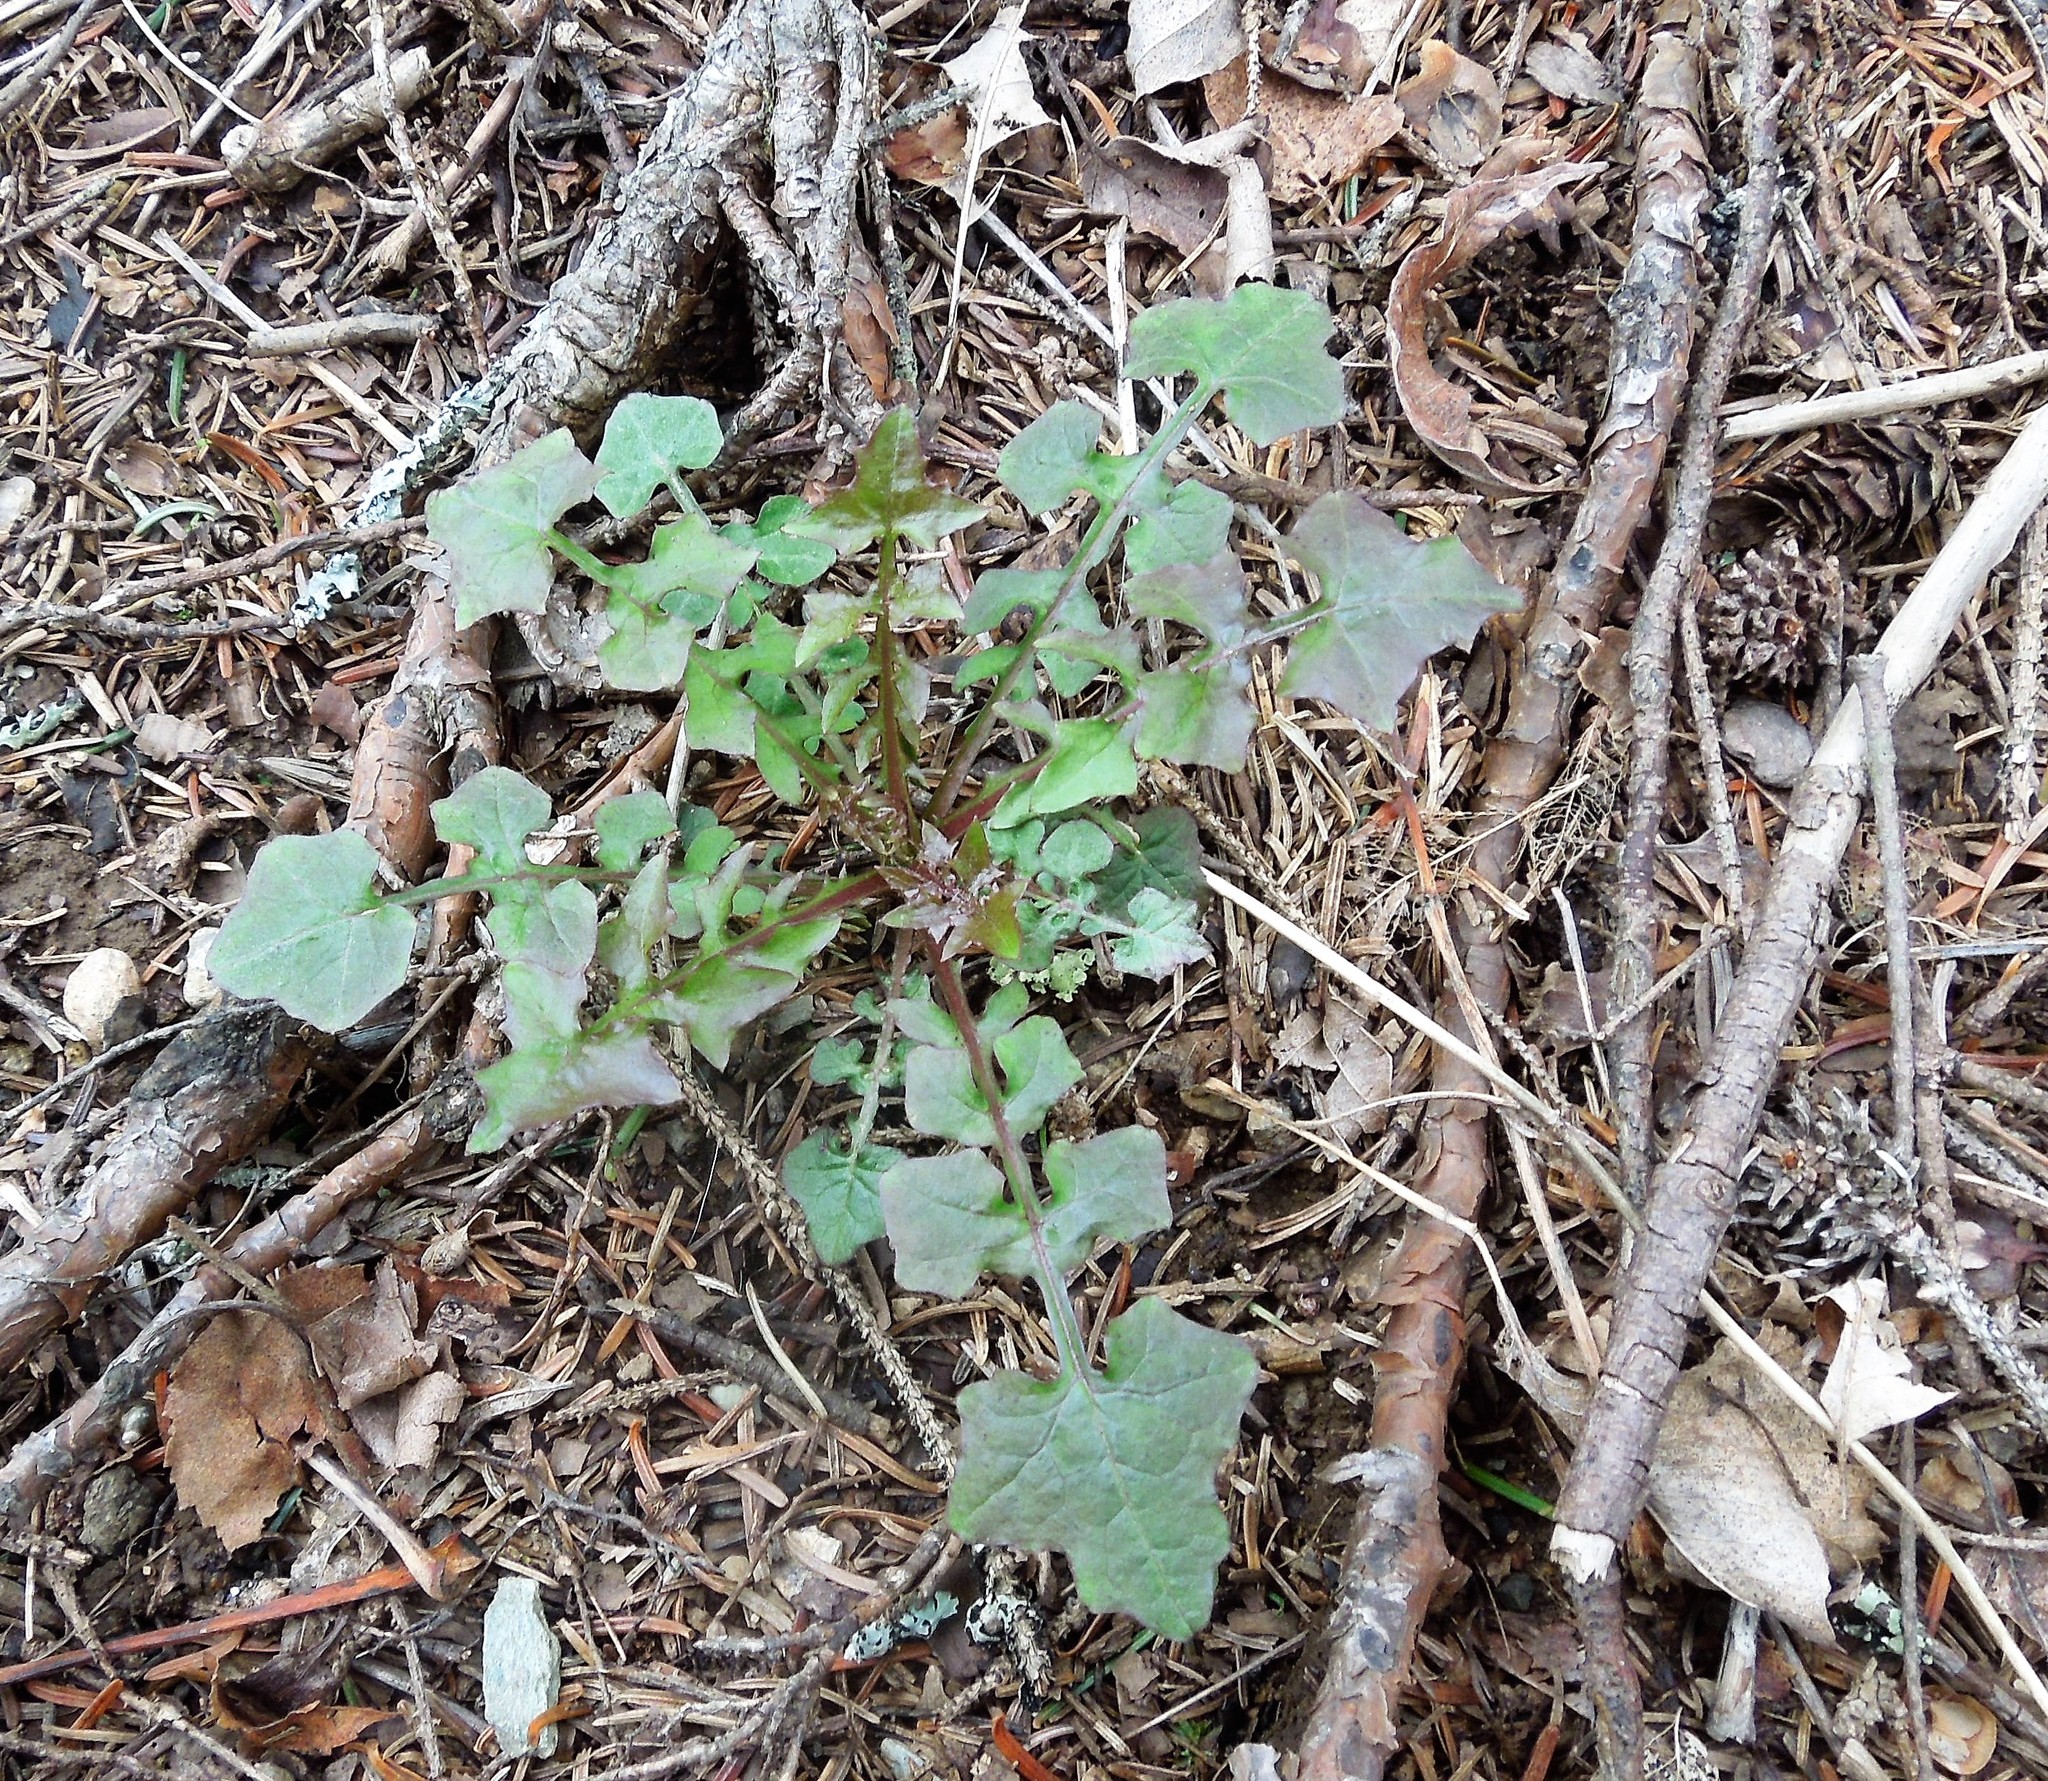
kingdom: Plantae
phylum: Tracheophyta
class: Magnoliopsida
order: Asterales
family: Asteraceae
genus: Mycelis
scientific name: Mycelis muralis
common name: Wall lettuce
